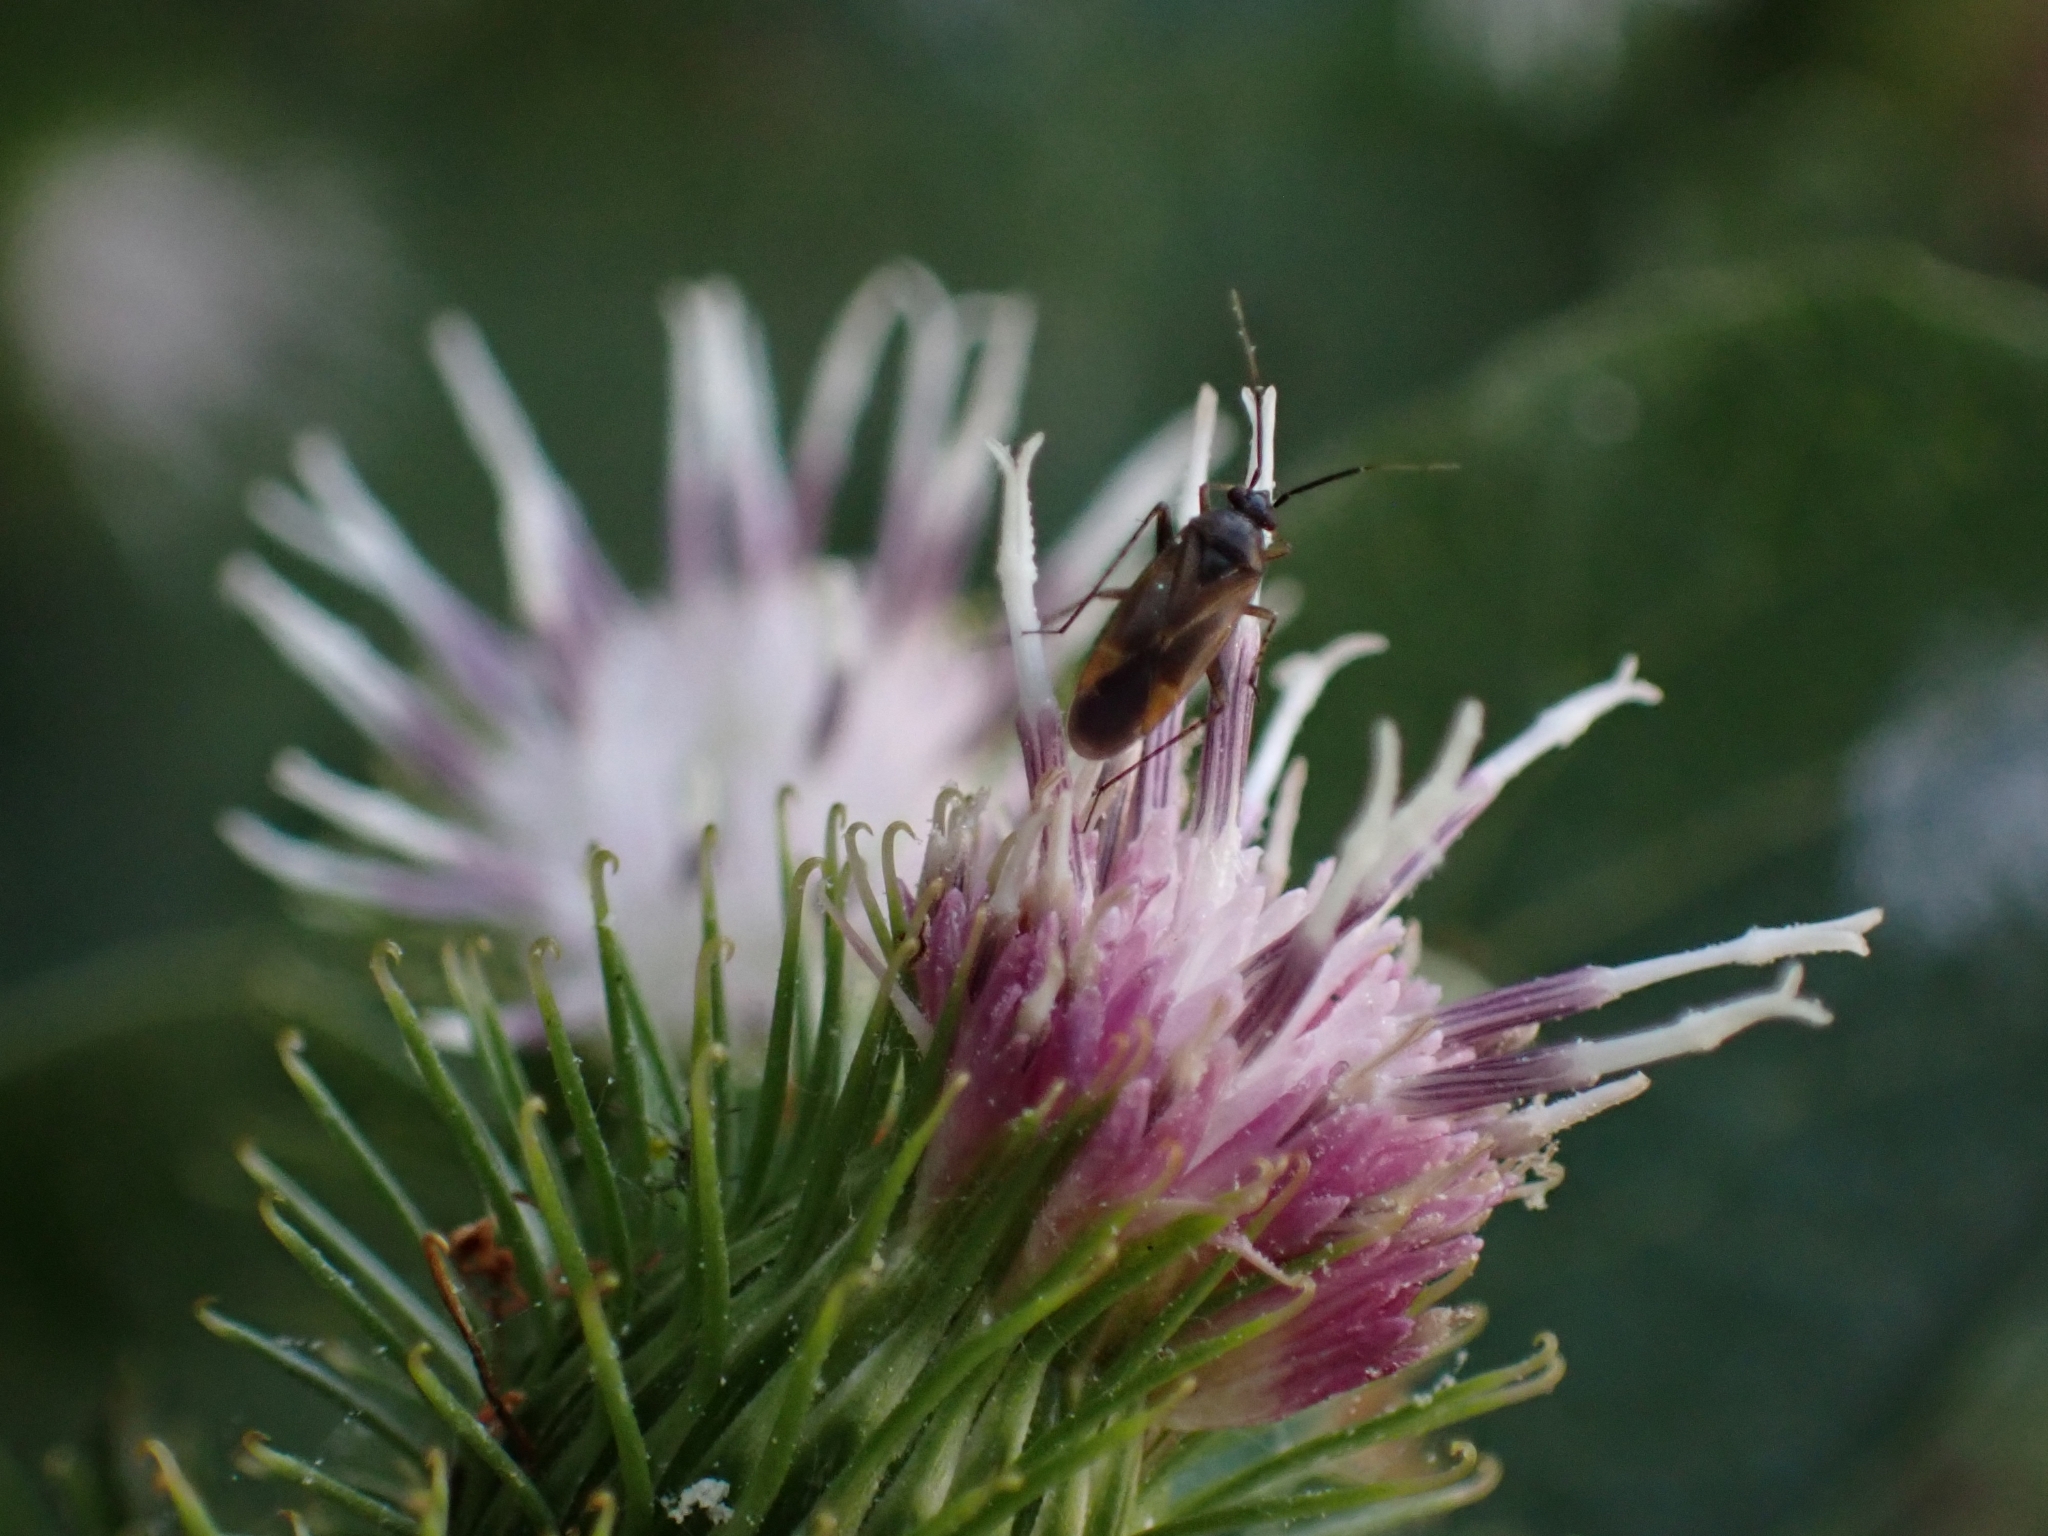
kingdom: Animalia
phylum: Arthropoda
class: Insecta
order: Hemiptera
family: Miridae
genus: Plagiognathus
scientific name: Plagiognathus arbustorum
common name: Plant bug
